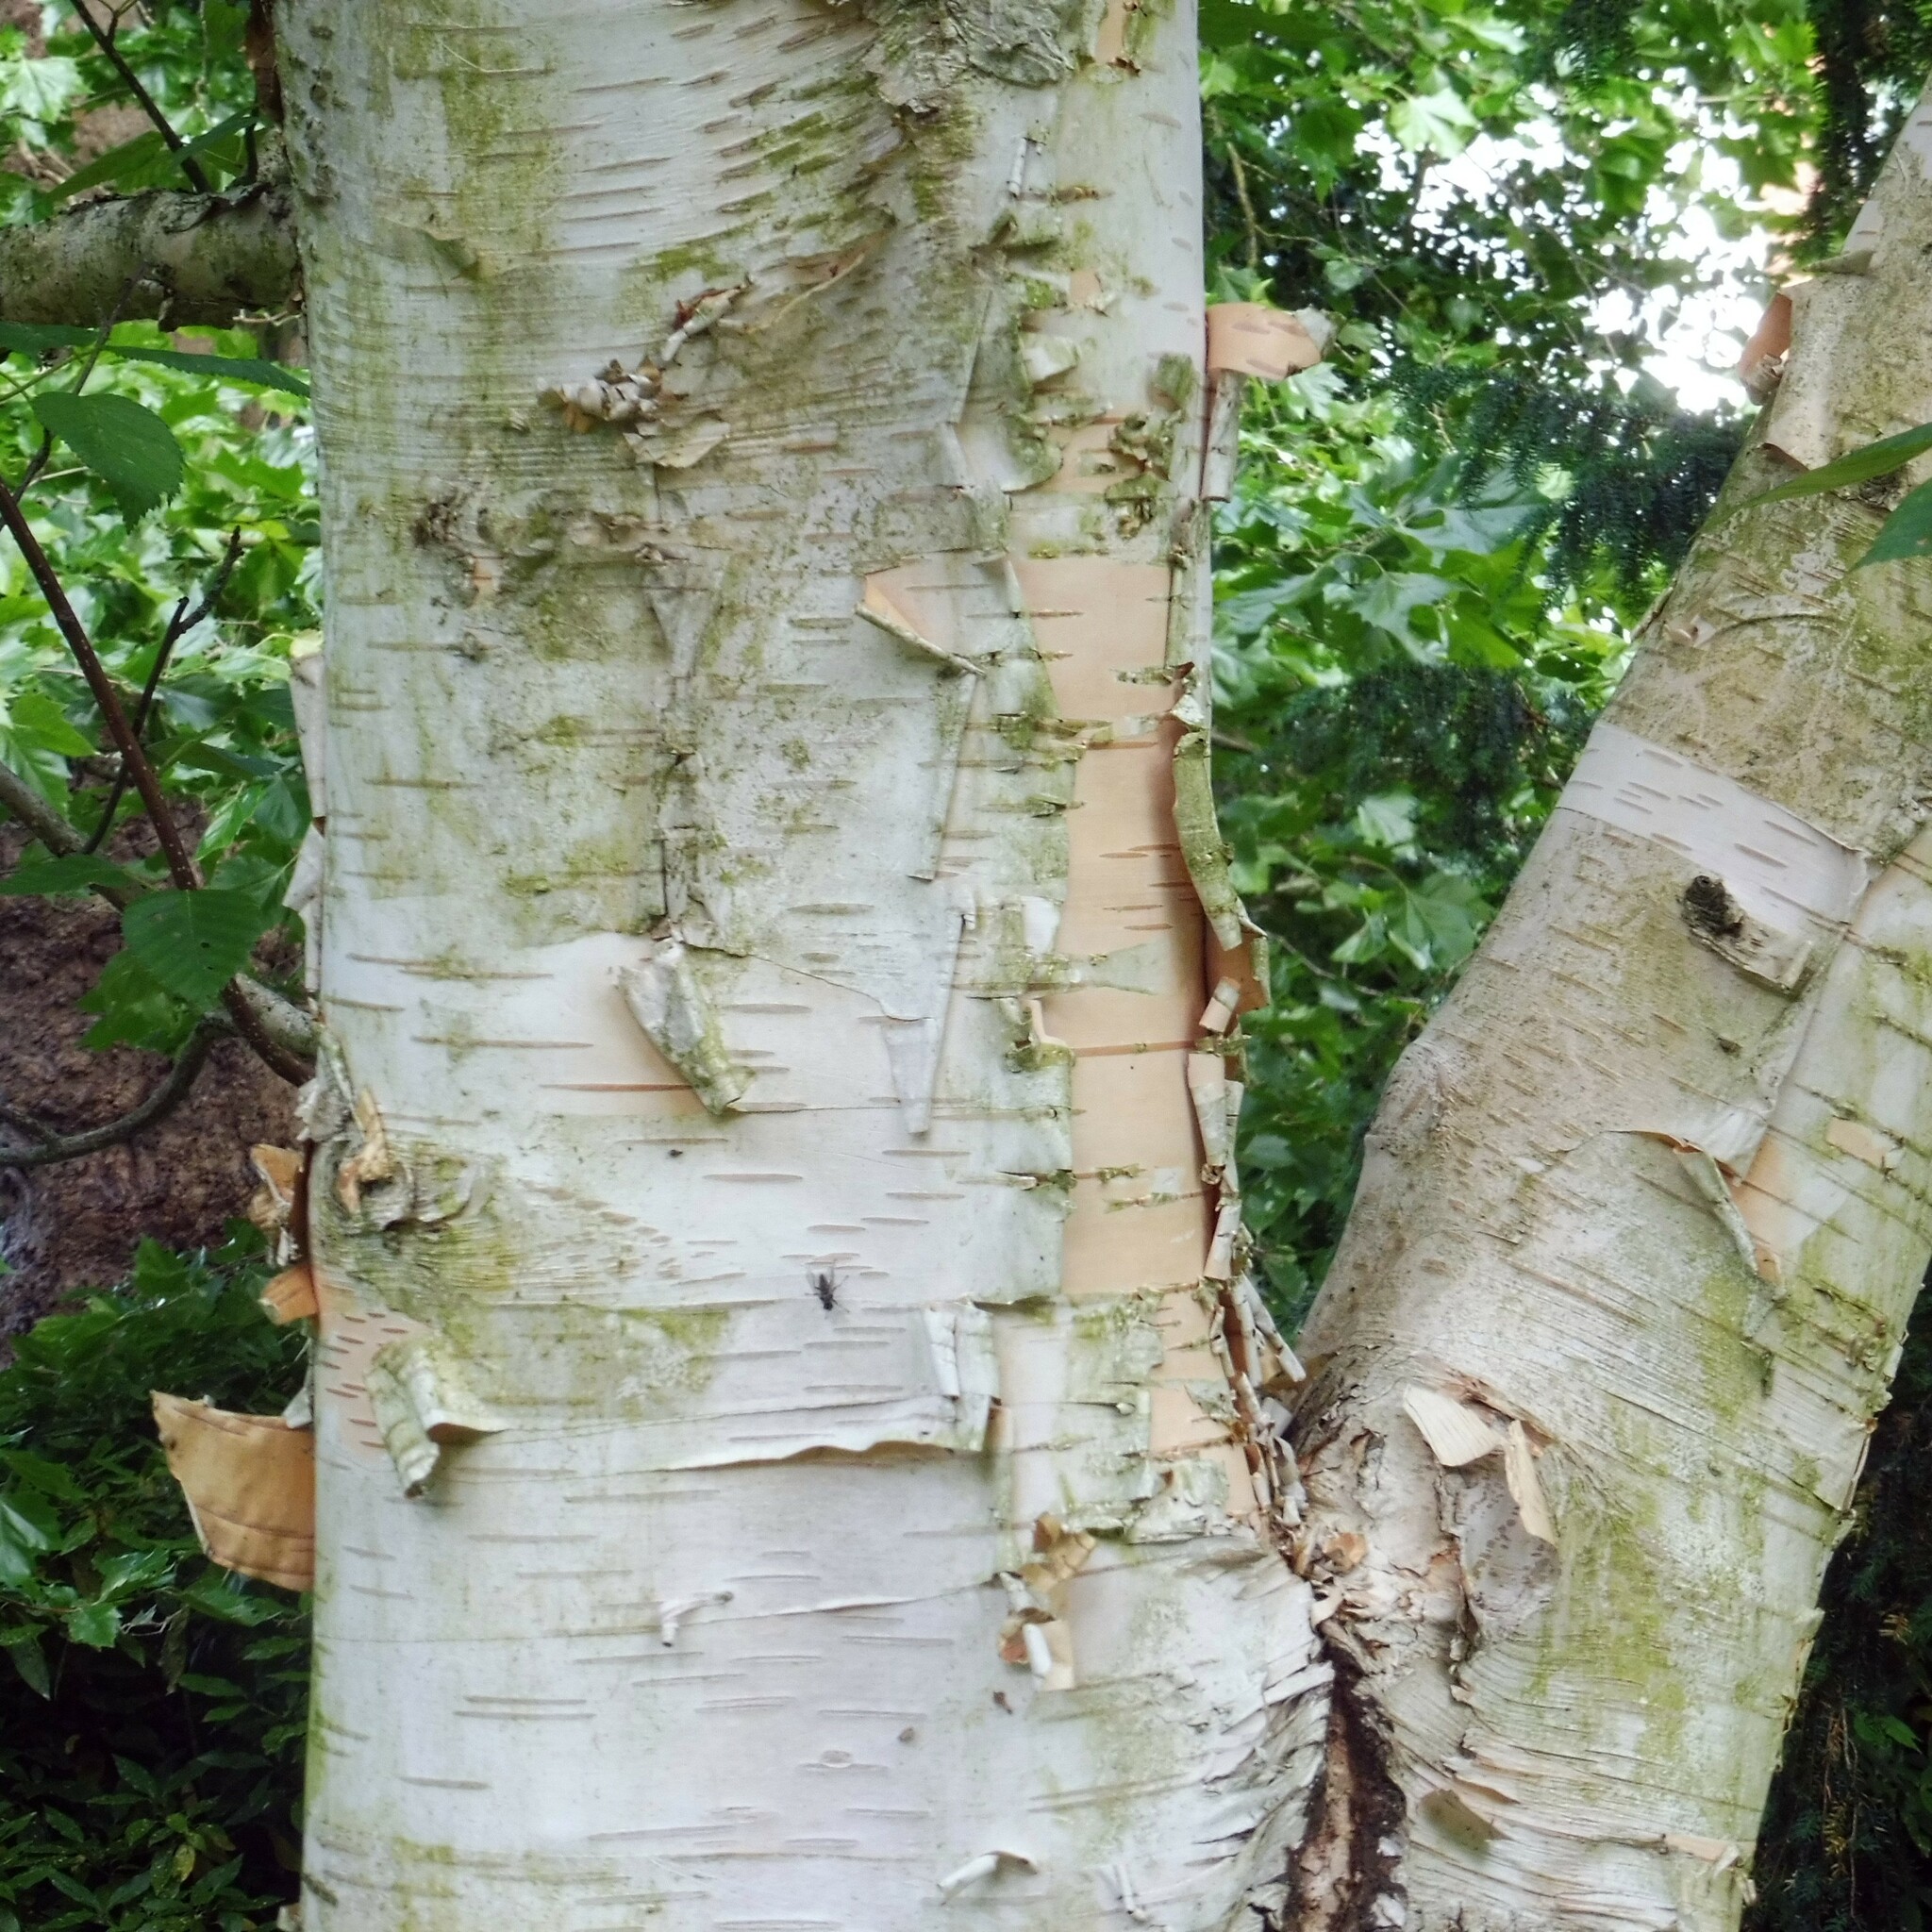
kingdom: Plantae
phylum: Tracheophyta
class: Magnoliopsida
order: Fagales
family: Betulaceae
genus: Betula
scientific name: Betula papyrifera
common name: Paper birch
